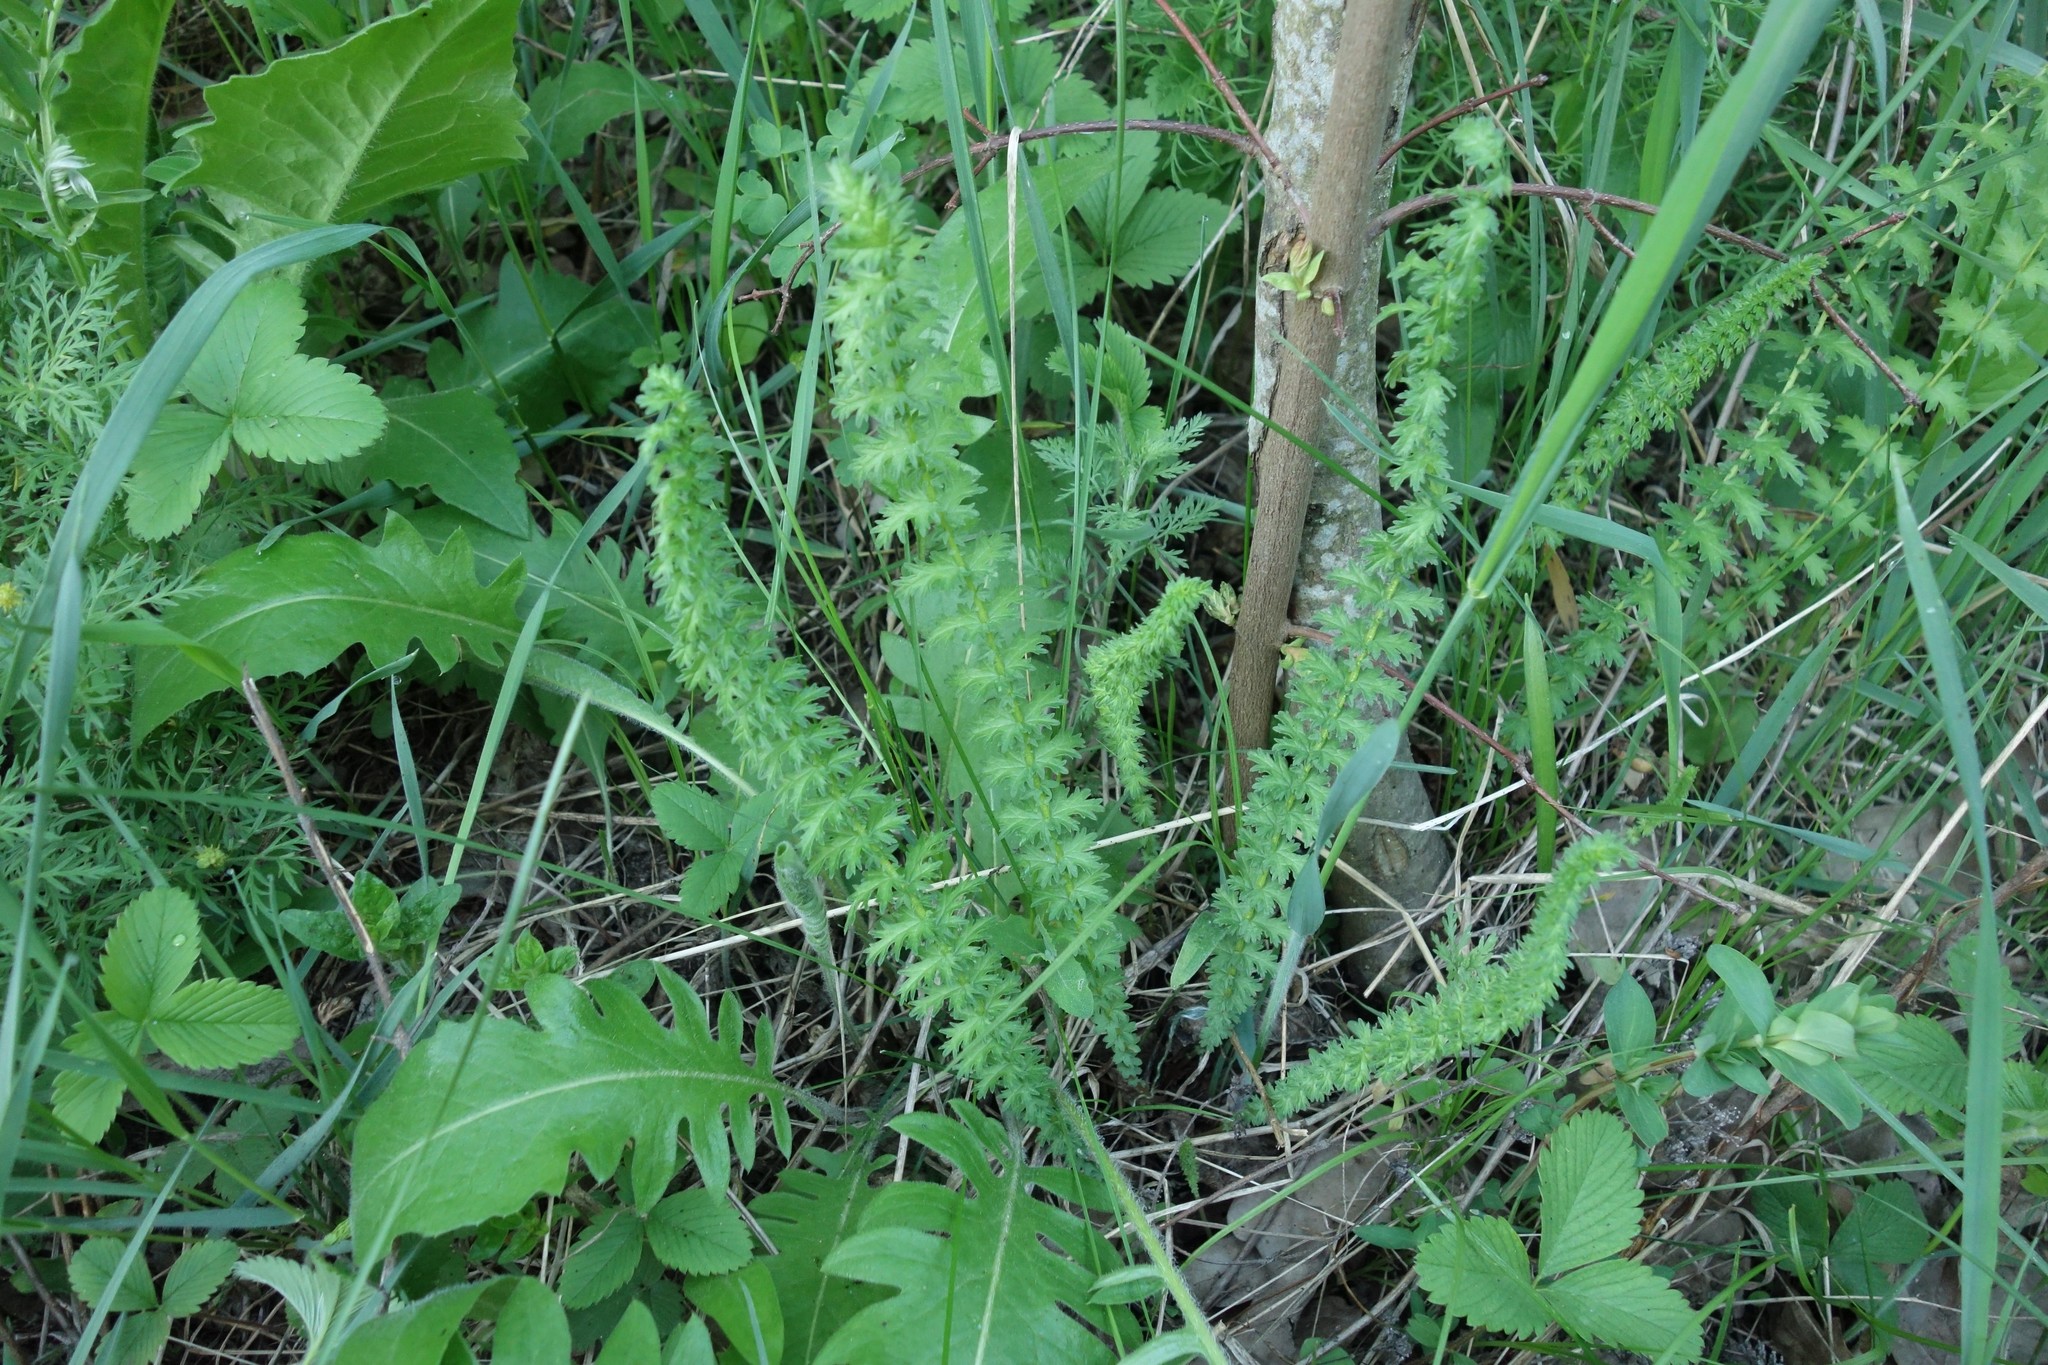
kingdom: Plantae
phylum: Tracheophyta
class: Magnoliopsida
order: Rosales
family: Rosaceae
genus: Filipendula
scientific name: Filipendula vulgaris
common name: Dropwort
